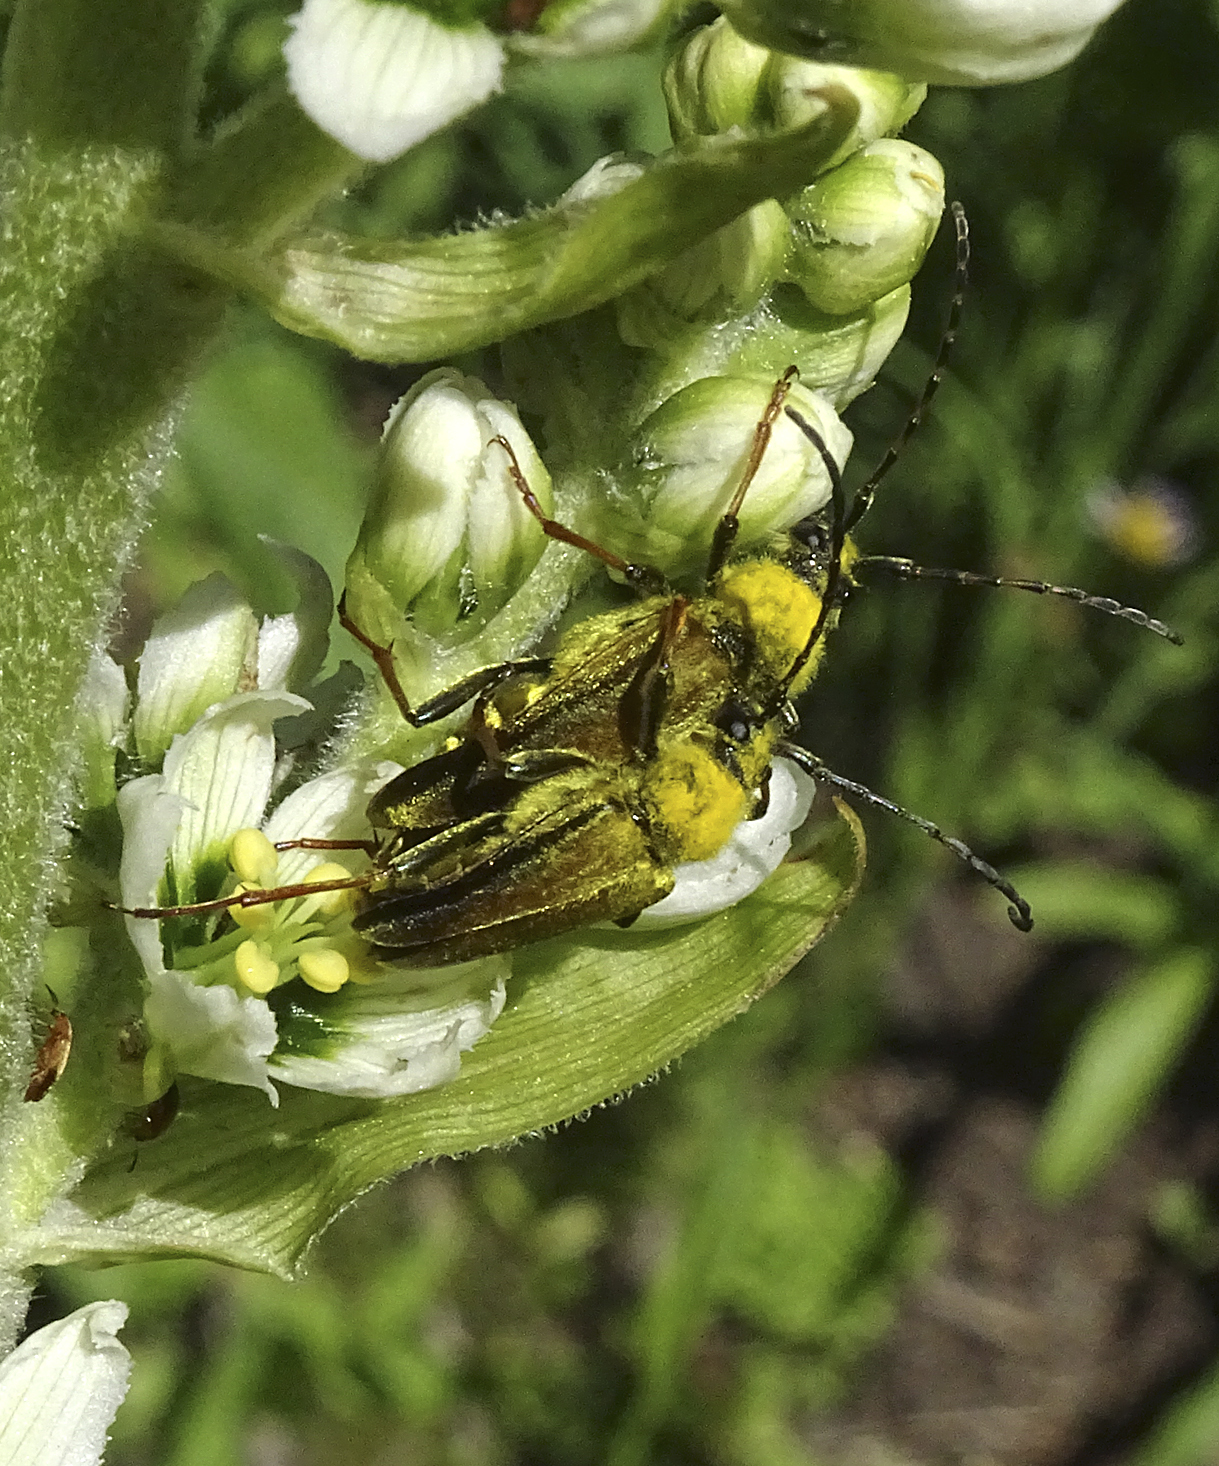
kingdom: Animalia
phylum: Arthropoda
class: Insecta
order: Coleoptera
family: Cerambycidae
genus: Cosmosalia
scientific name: Cosmosalia chrysocoma
